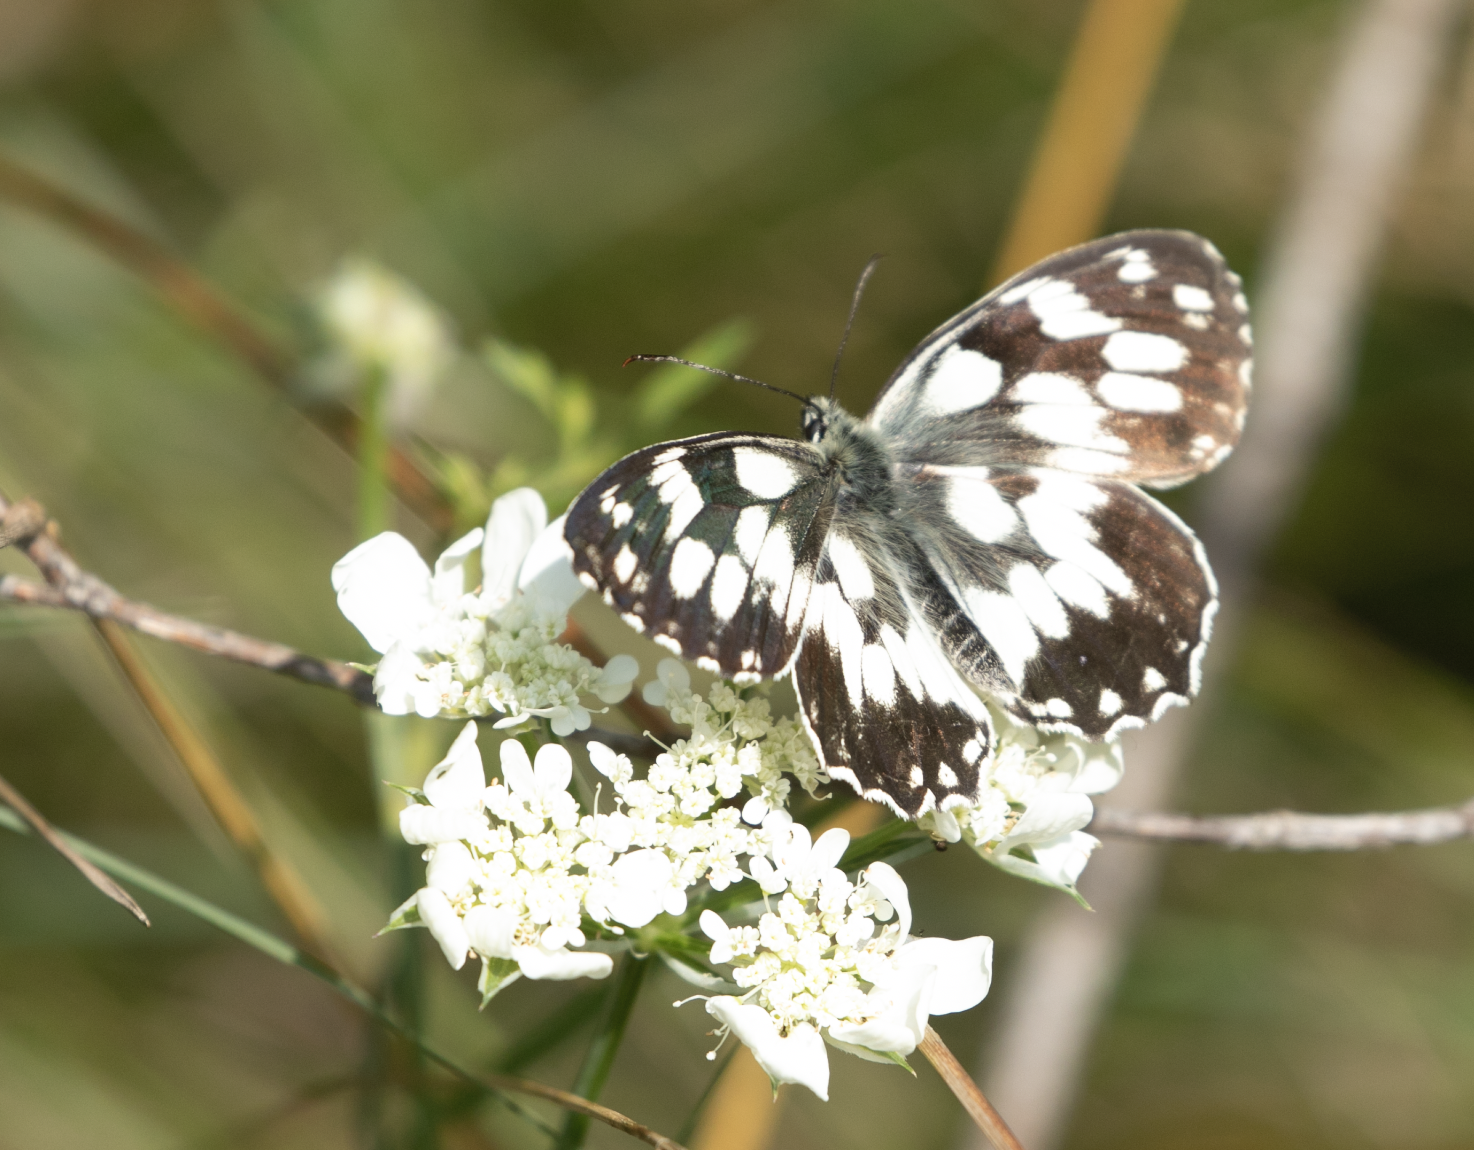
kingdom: Animalia
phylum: Arthropoda
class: Insecta
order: Lepidoptera
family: Nymphalidae
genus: Melanargia
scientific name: Melanargia galathea
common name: Marbled white
